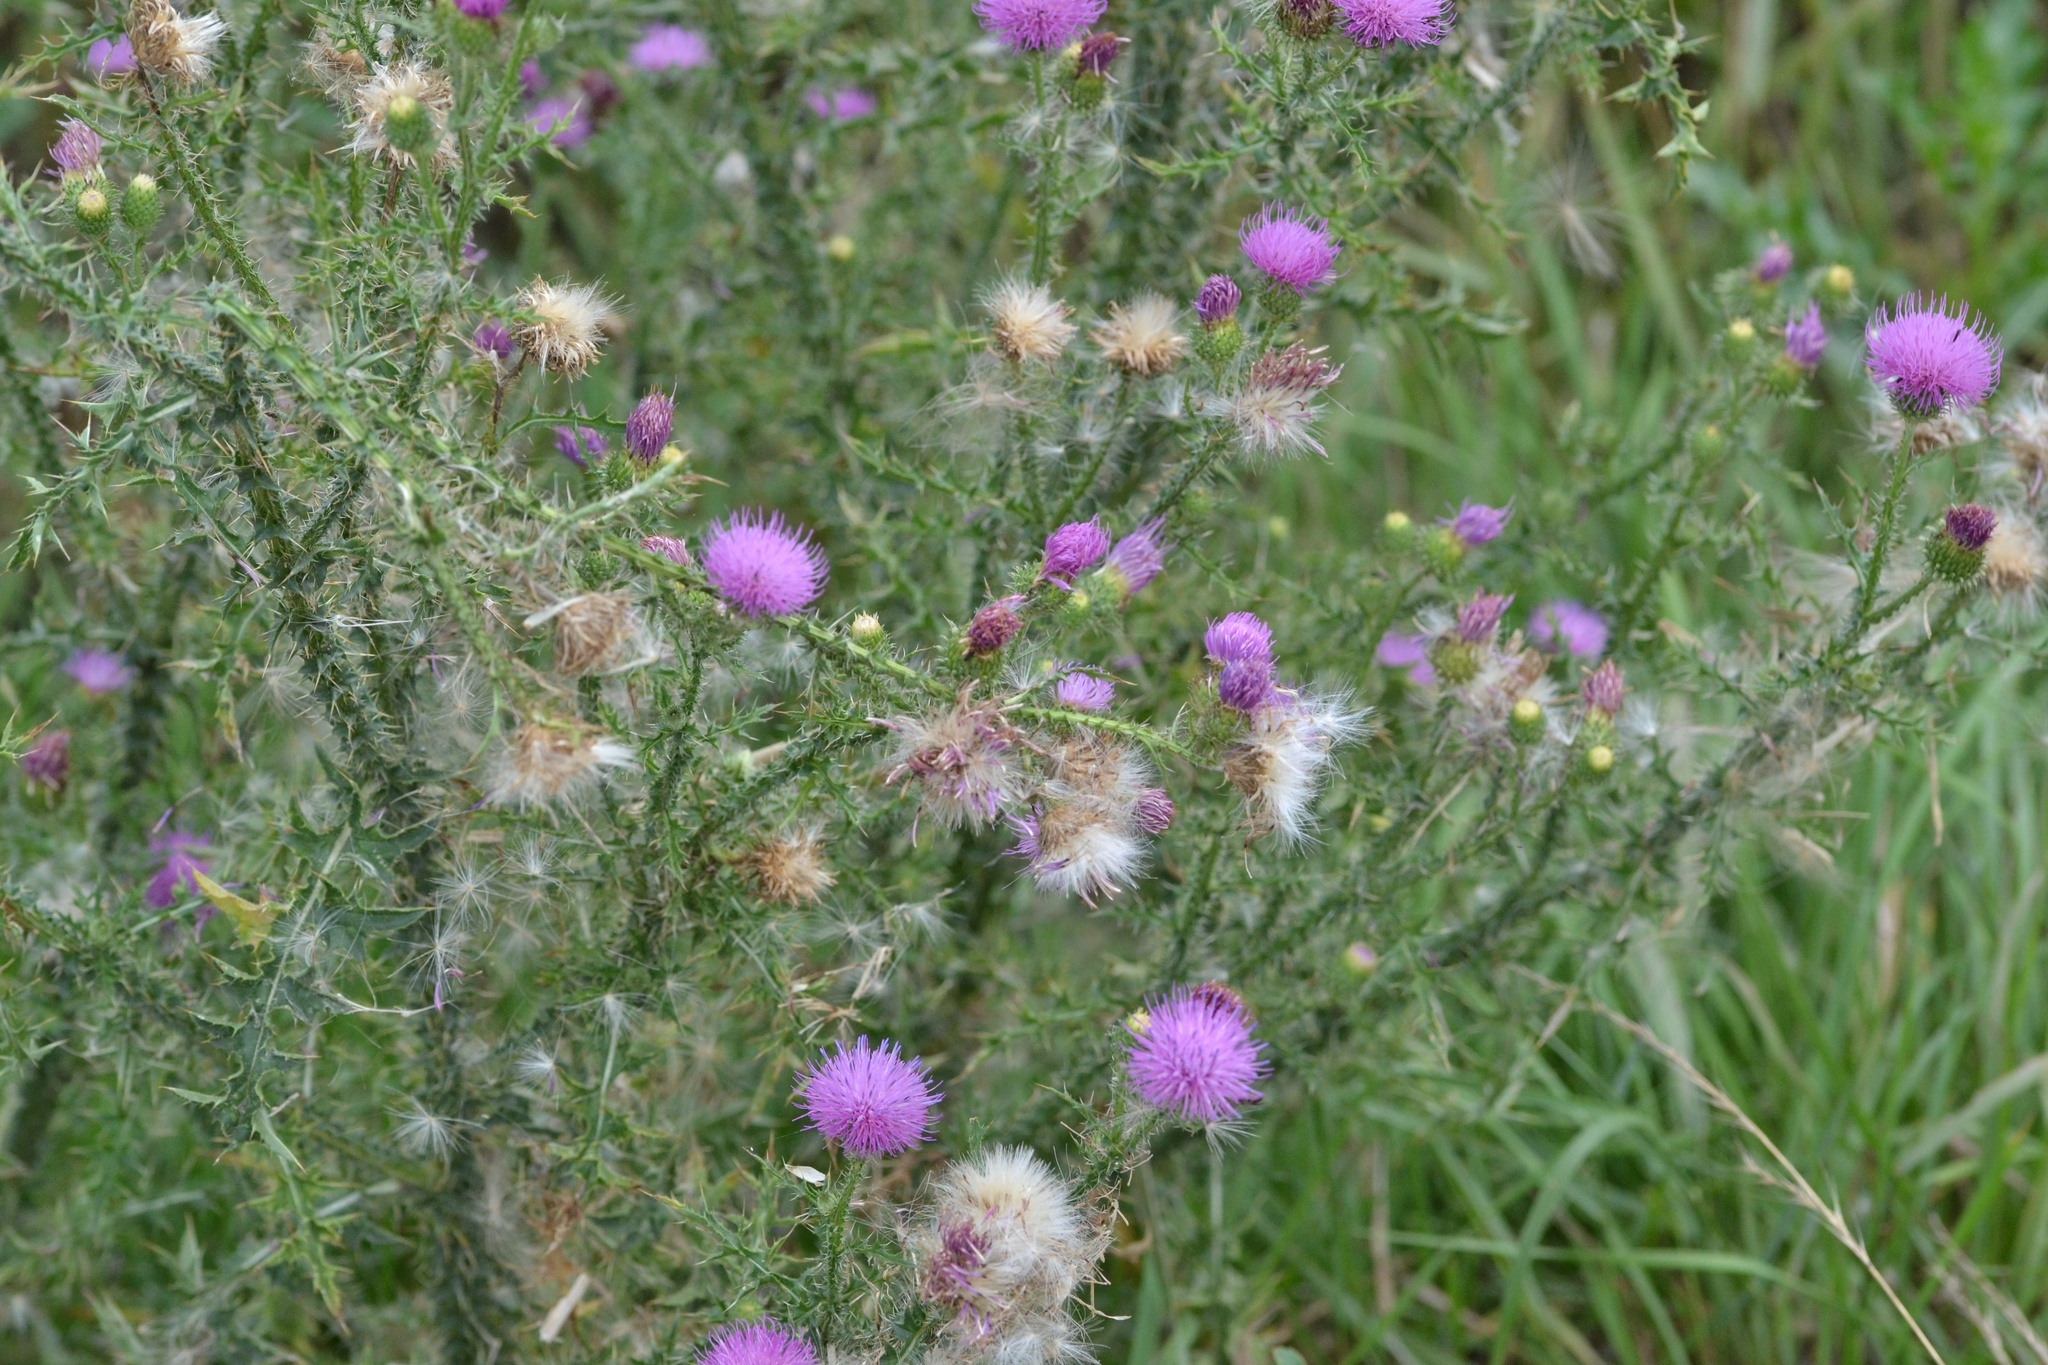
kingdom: Plantae
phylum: Tracheophyta
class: Magnoliopsida
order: Asterales
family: Asteraceae
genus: Carduus
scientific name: Carduus acanthoides
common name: Plumeless thistle
